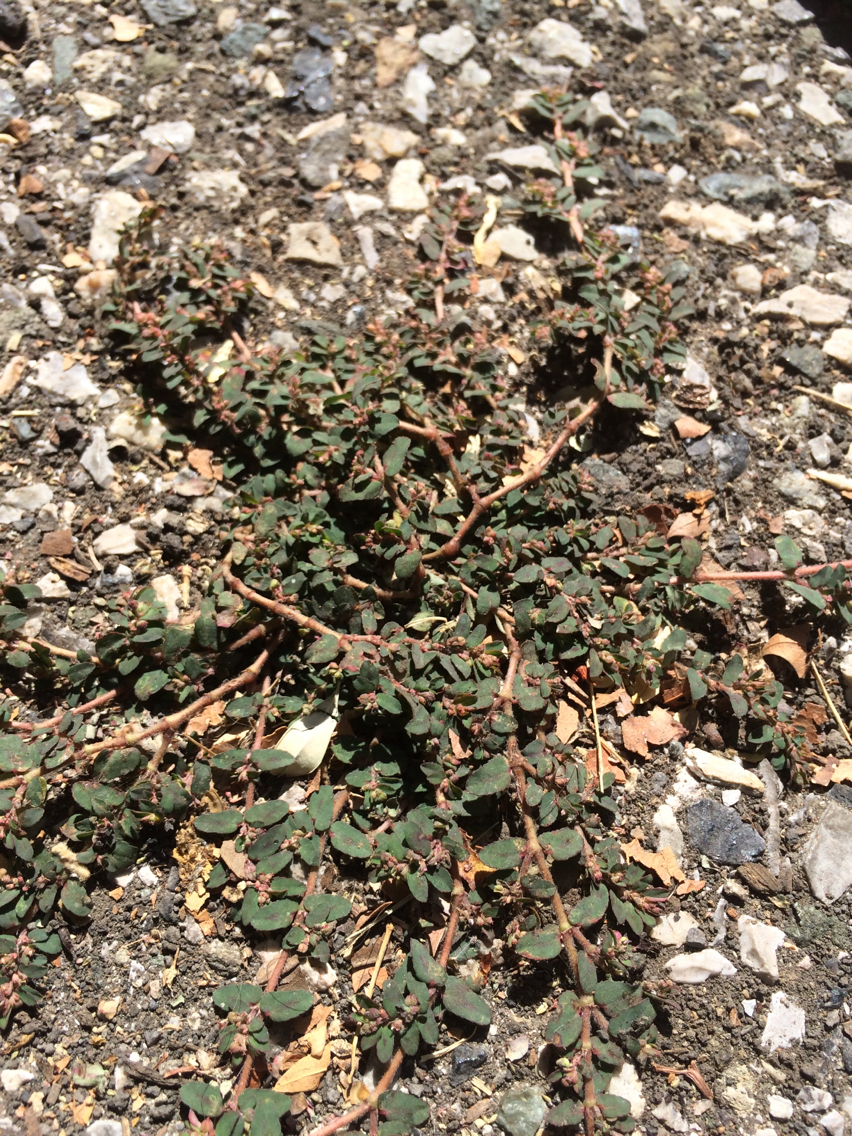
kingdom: Plantae
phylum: Tracheophyta
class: Magnoliopsida
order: Malpighiales
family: Euphorbiaceae
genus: Euphorbia
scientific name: Euphorbia maculata
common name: Spotted spurge
